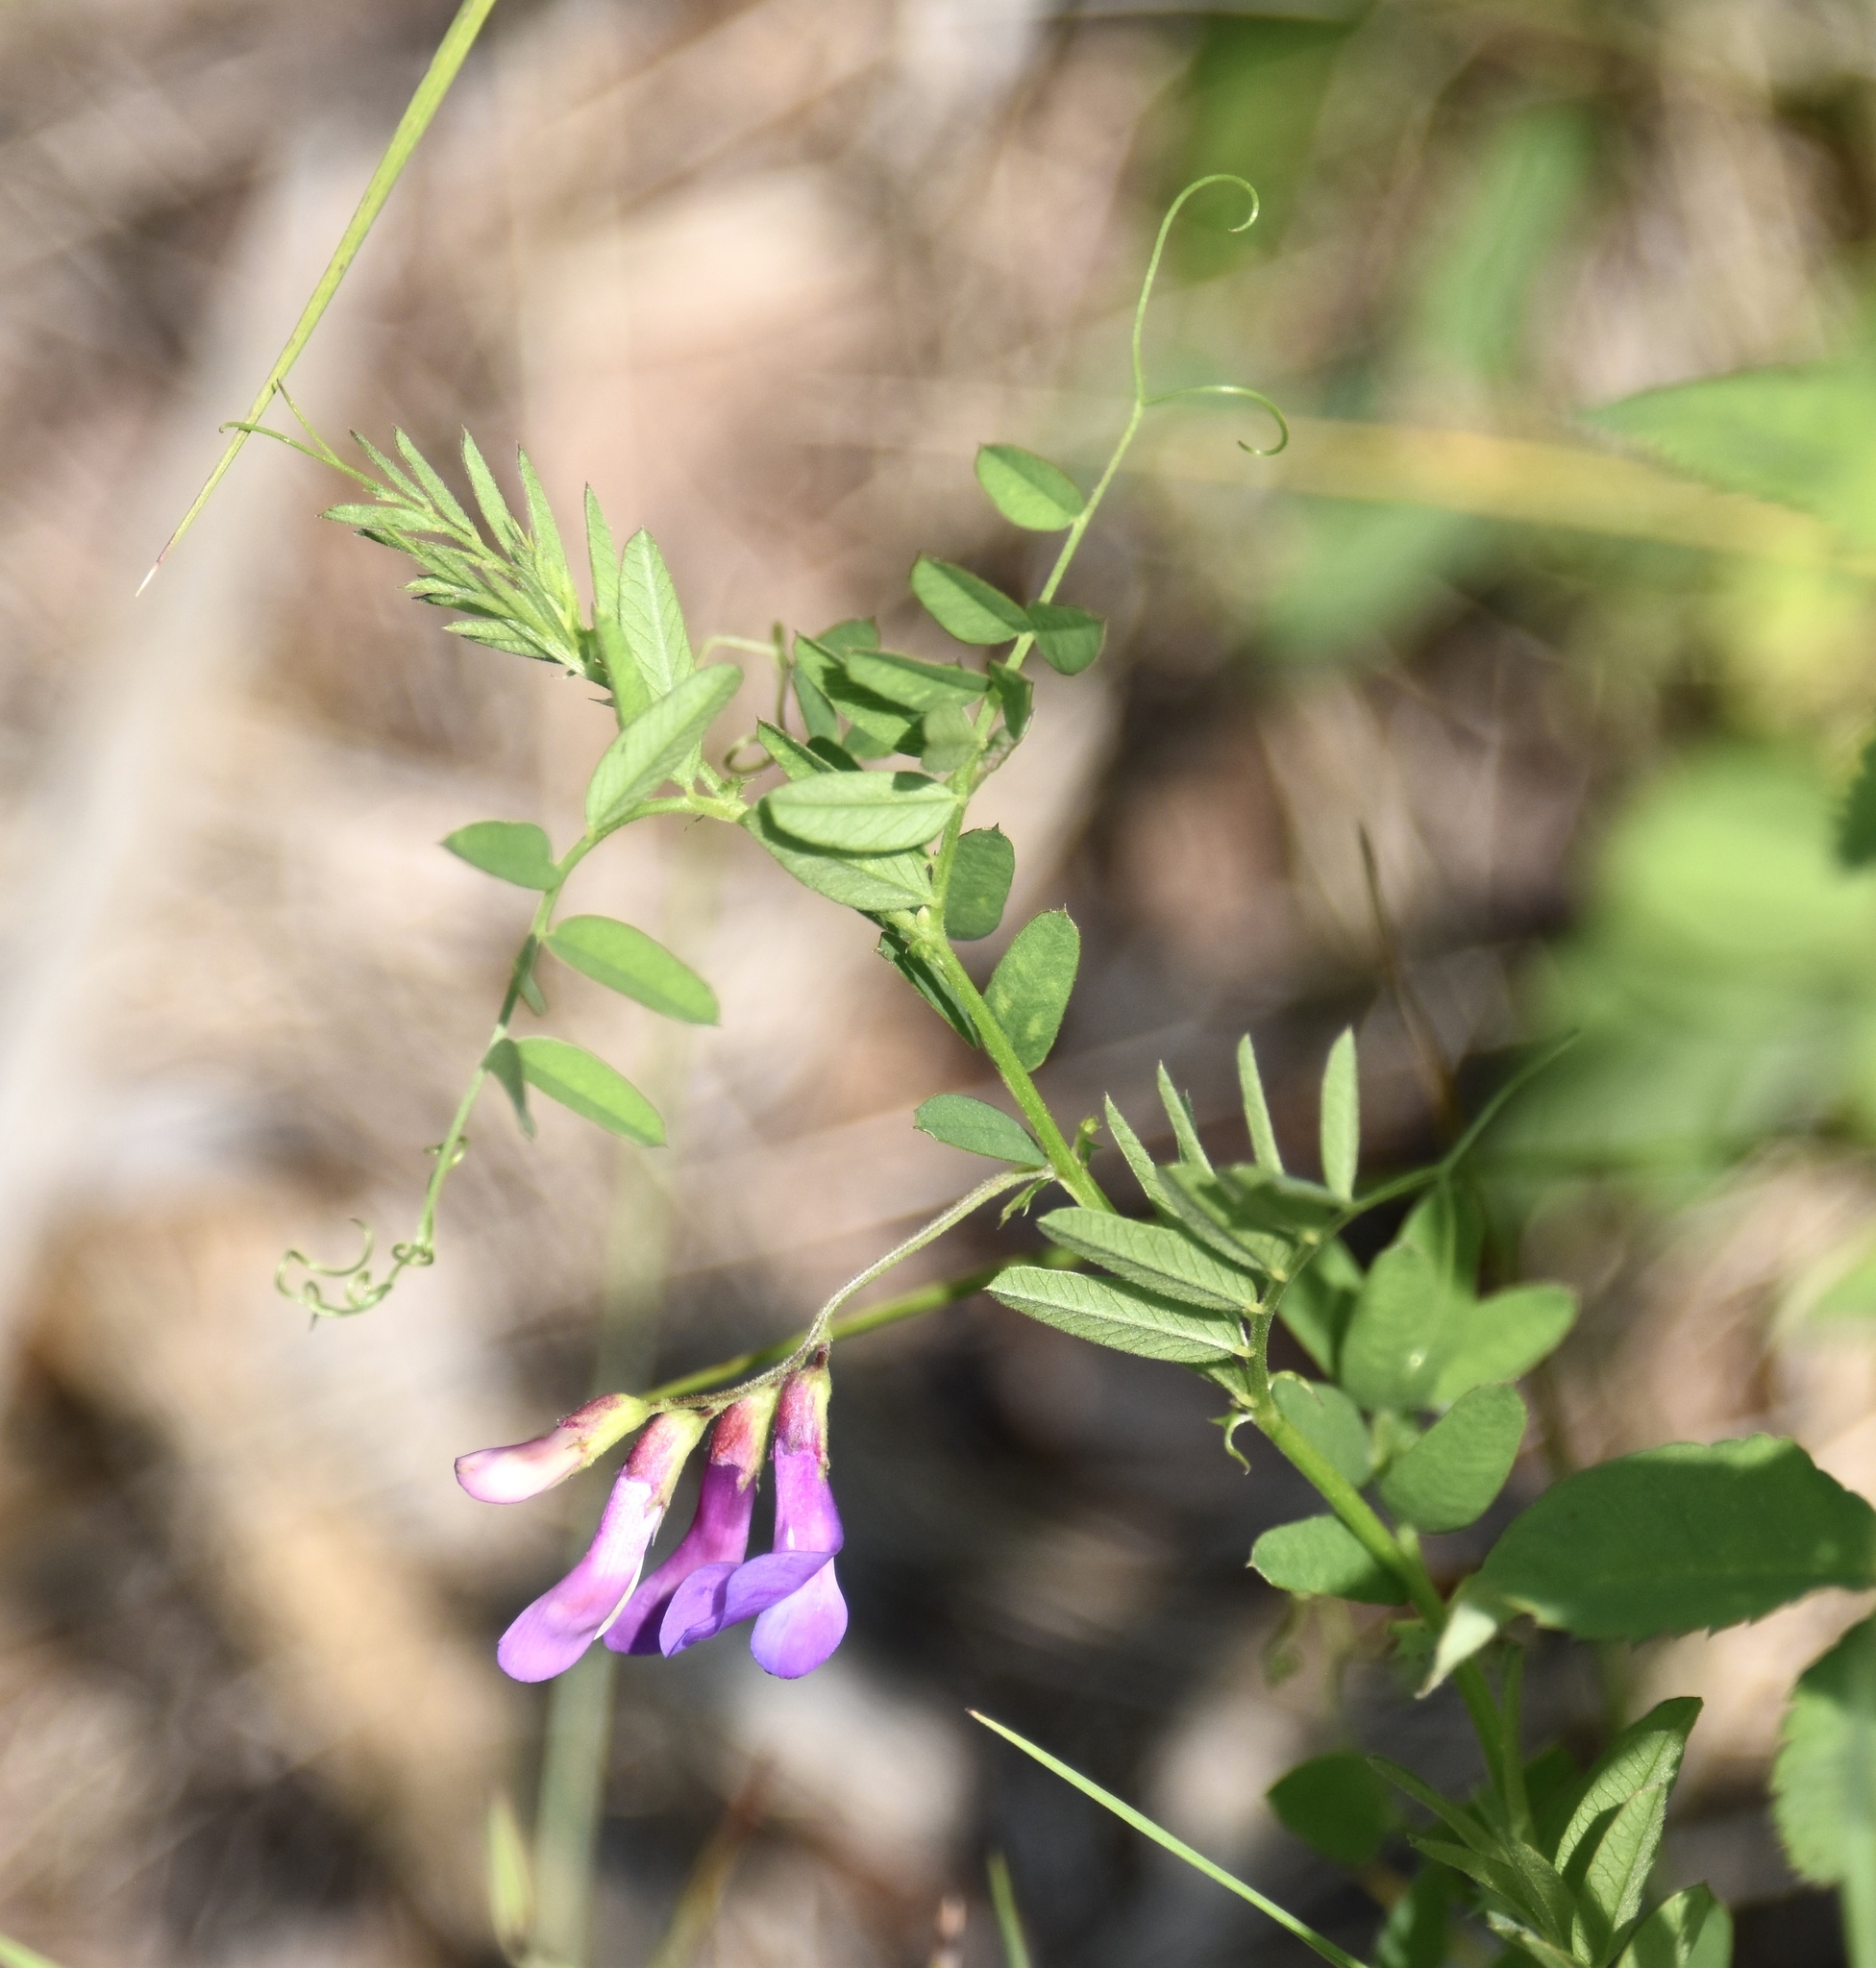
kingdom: Plantae
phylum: Tracheophyta
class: Magnoliopsida
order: Fabales
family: Fabaceae
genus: Vicia
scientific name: Vicia americana
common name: American vetch
